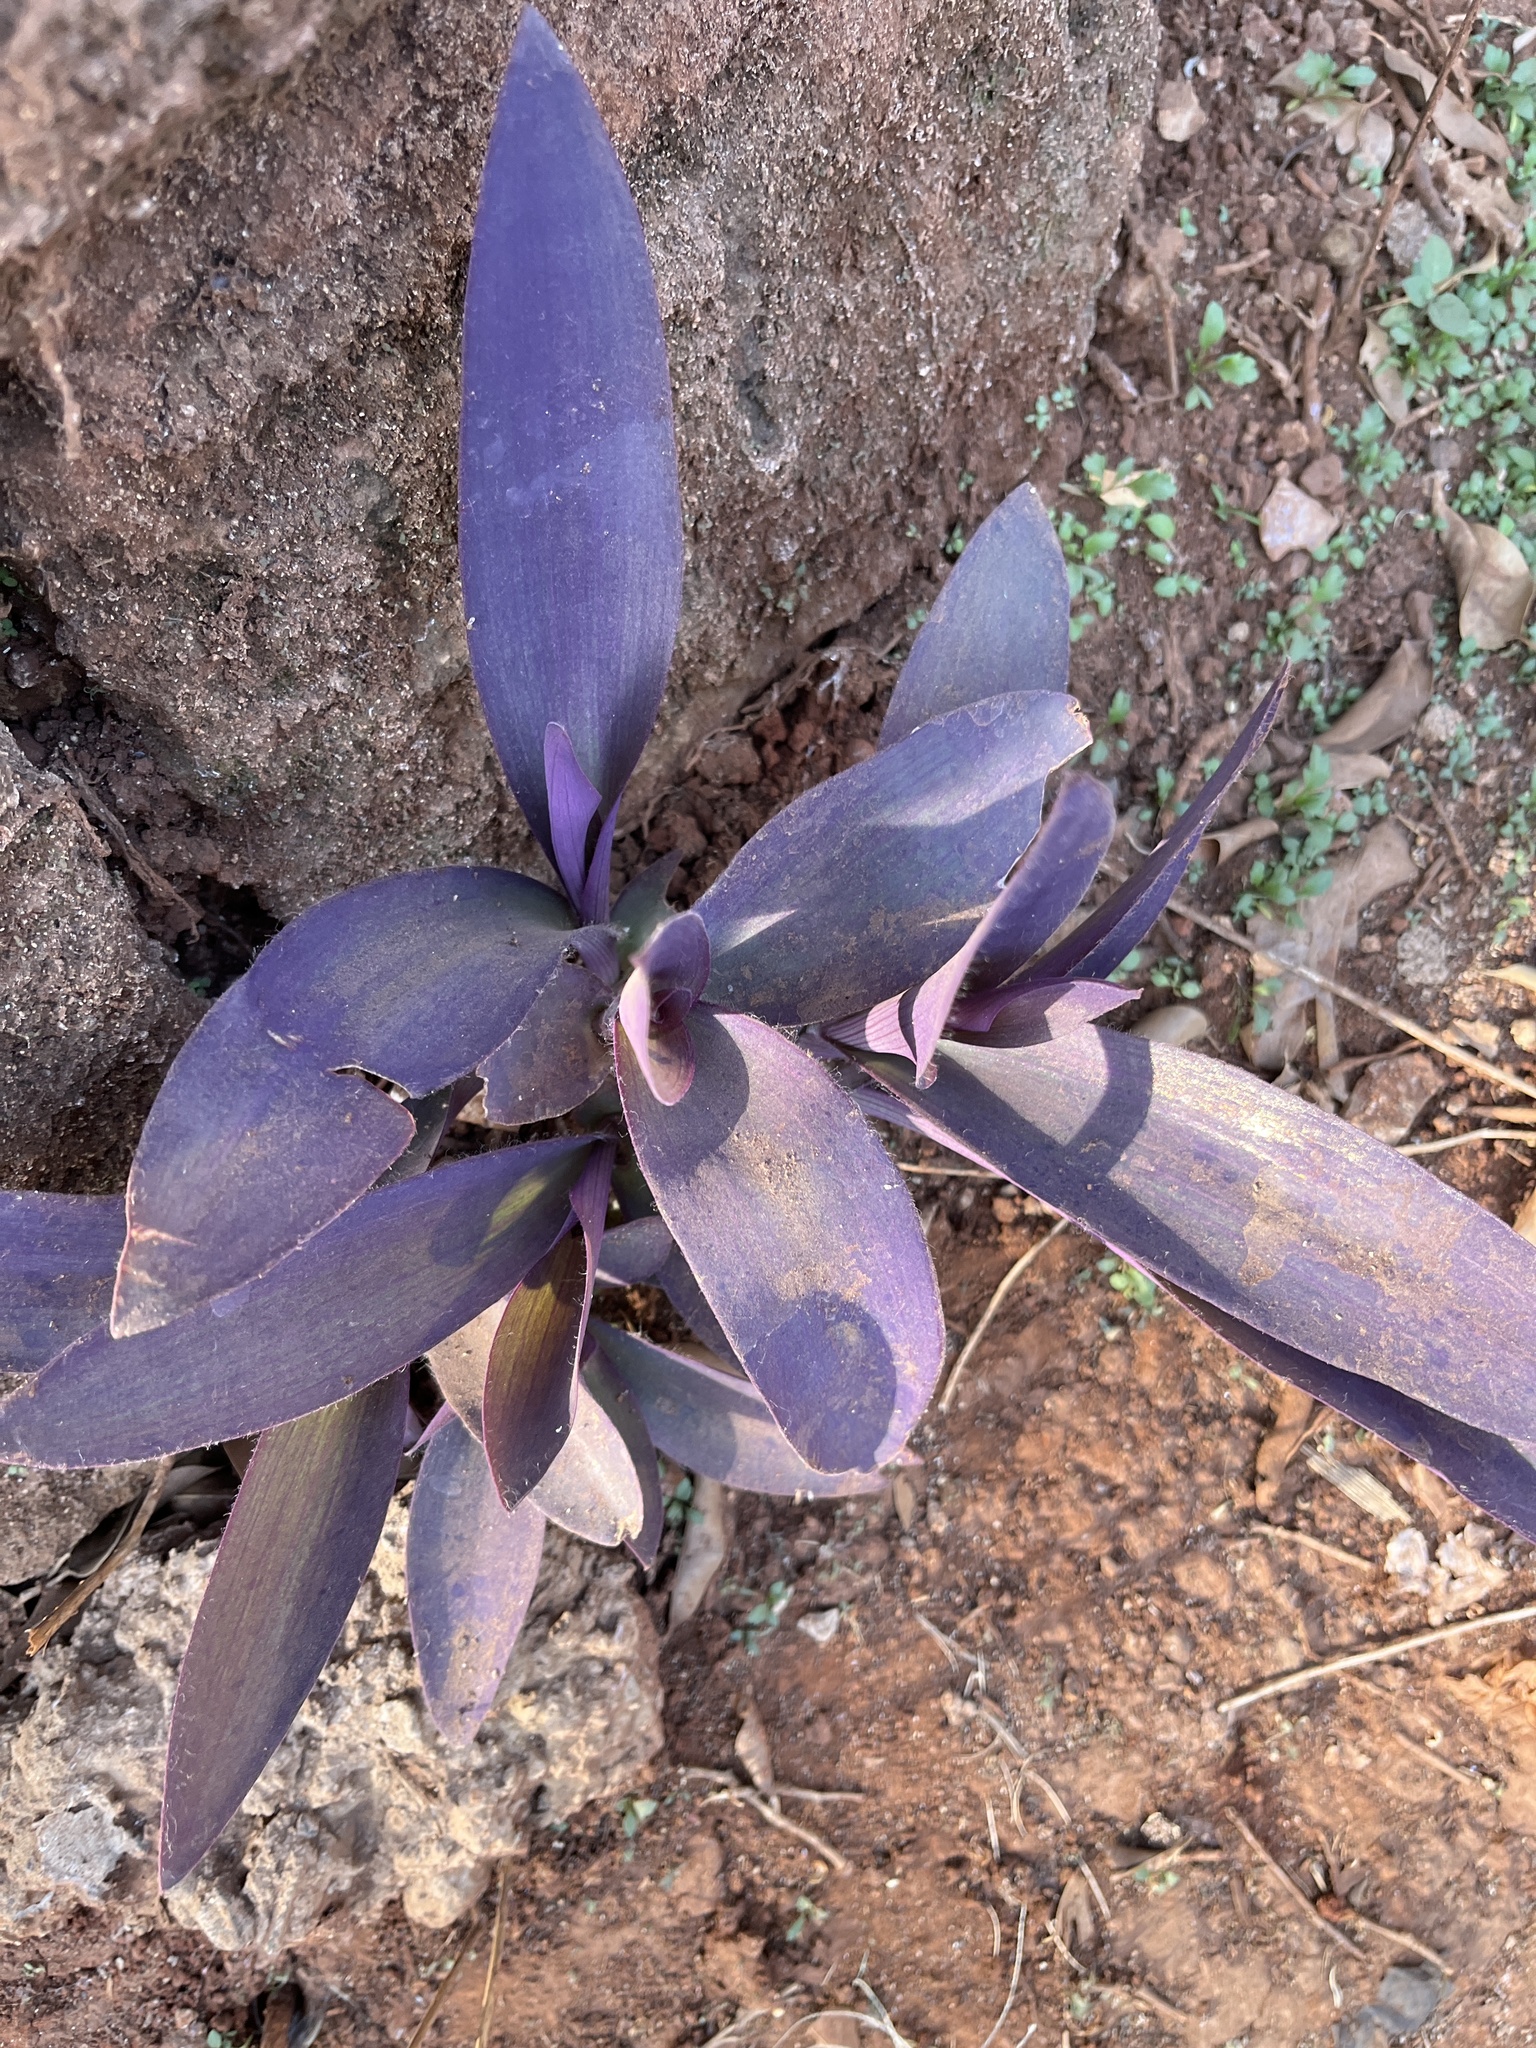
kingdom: Plantae
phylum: Tracheophyta
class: Liliopsida
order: Commelinales
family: Commelinaceae
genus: Tradescantia
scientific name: Tradescantia pallida
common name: Purpleheart
